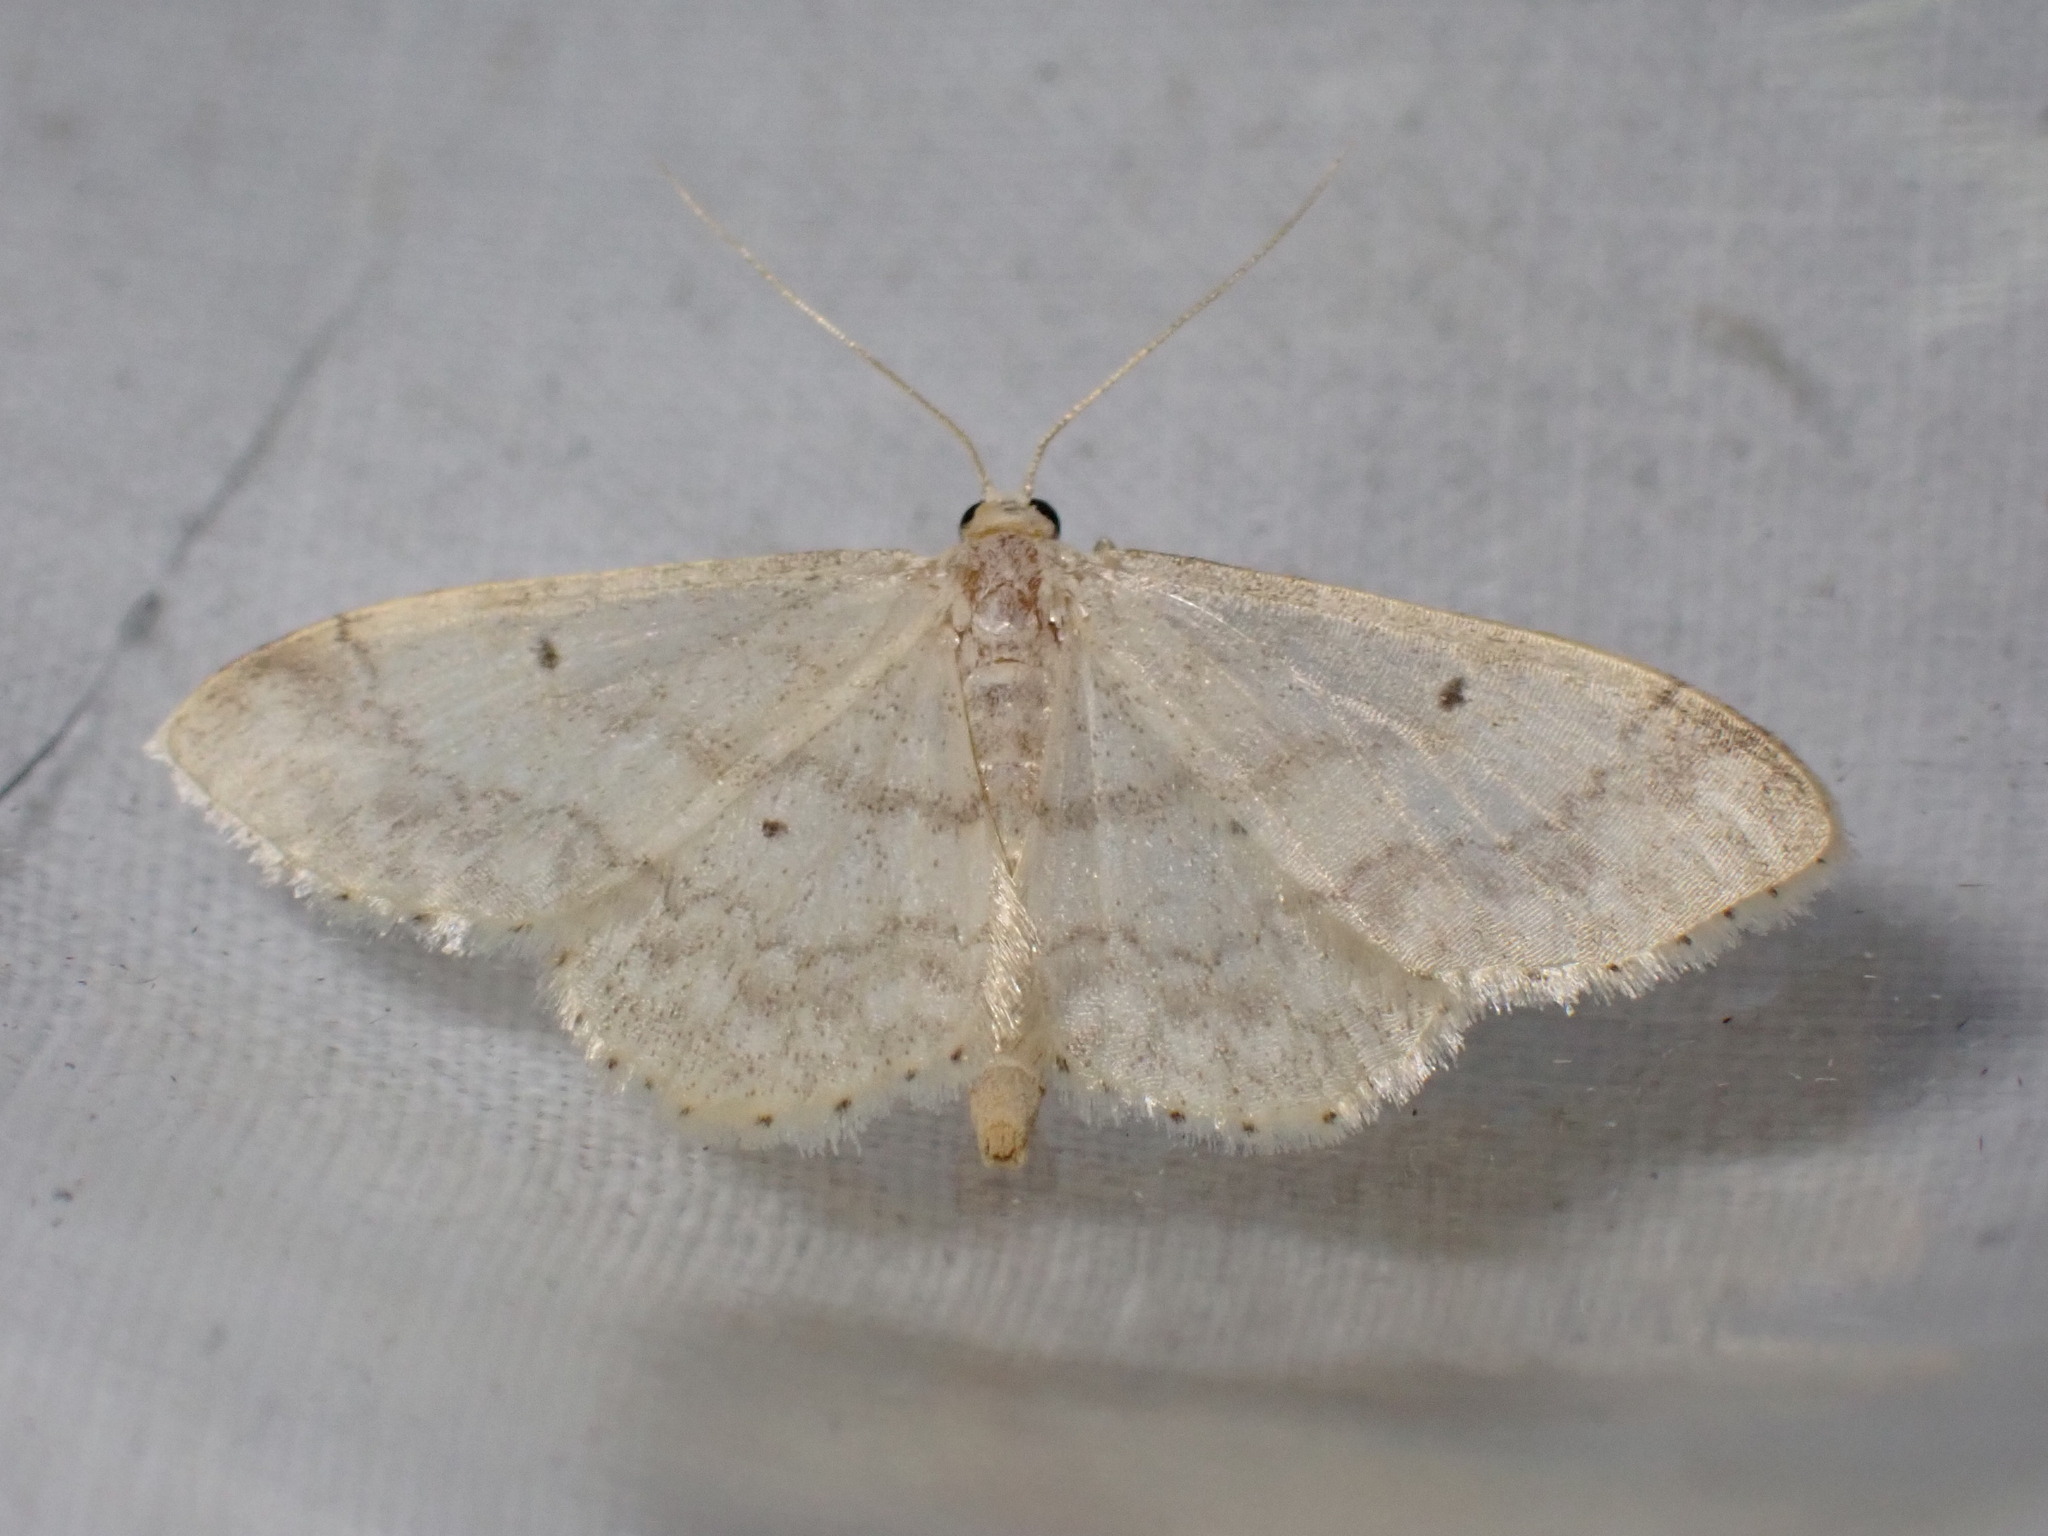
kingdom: Animalia
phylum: Arthropoda
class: Insecta
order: Lepidoptera
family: Geometridae
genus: Idaea
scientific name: Idaea biselata
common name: Small fan-footed wave
